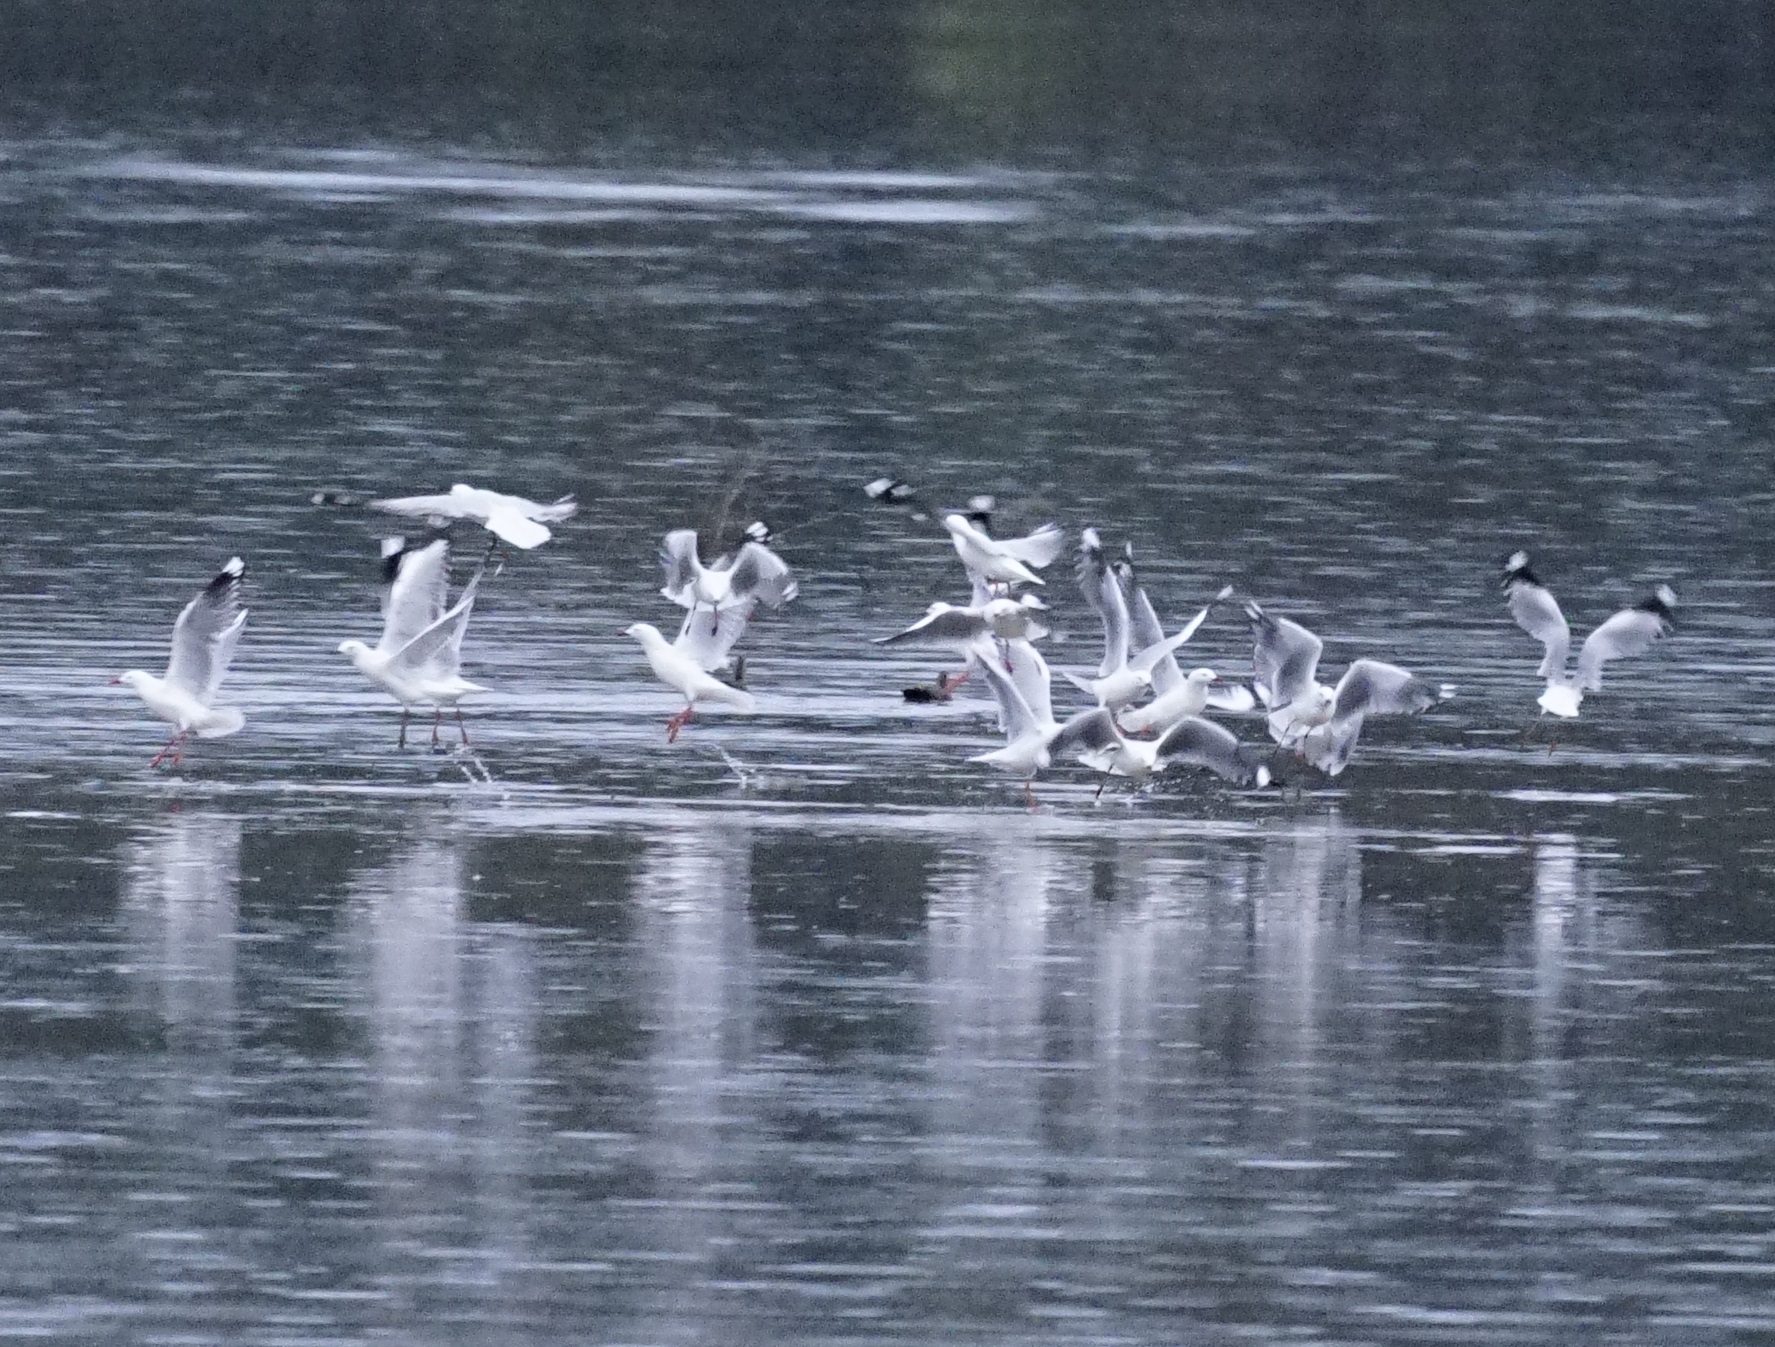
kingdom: Animalia
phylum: Chordata
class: Aves
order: Charadriiformes
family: Laridae
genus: Chroicocephalus
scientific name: Chroicocephalus novaehollandiae
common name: Silver gull
